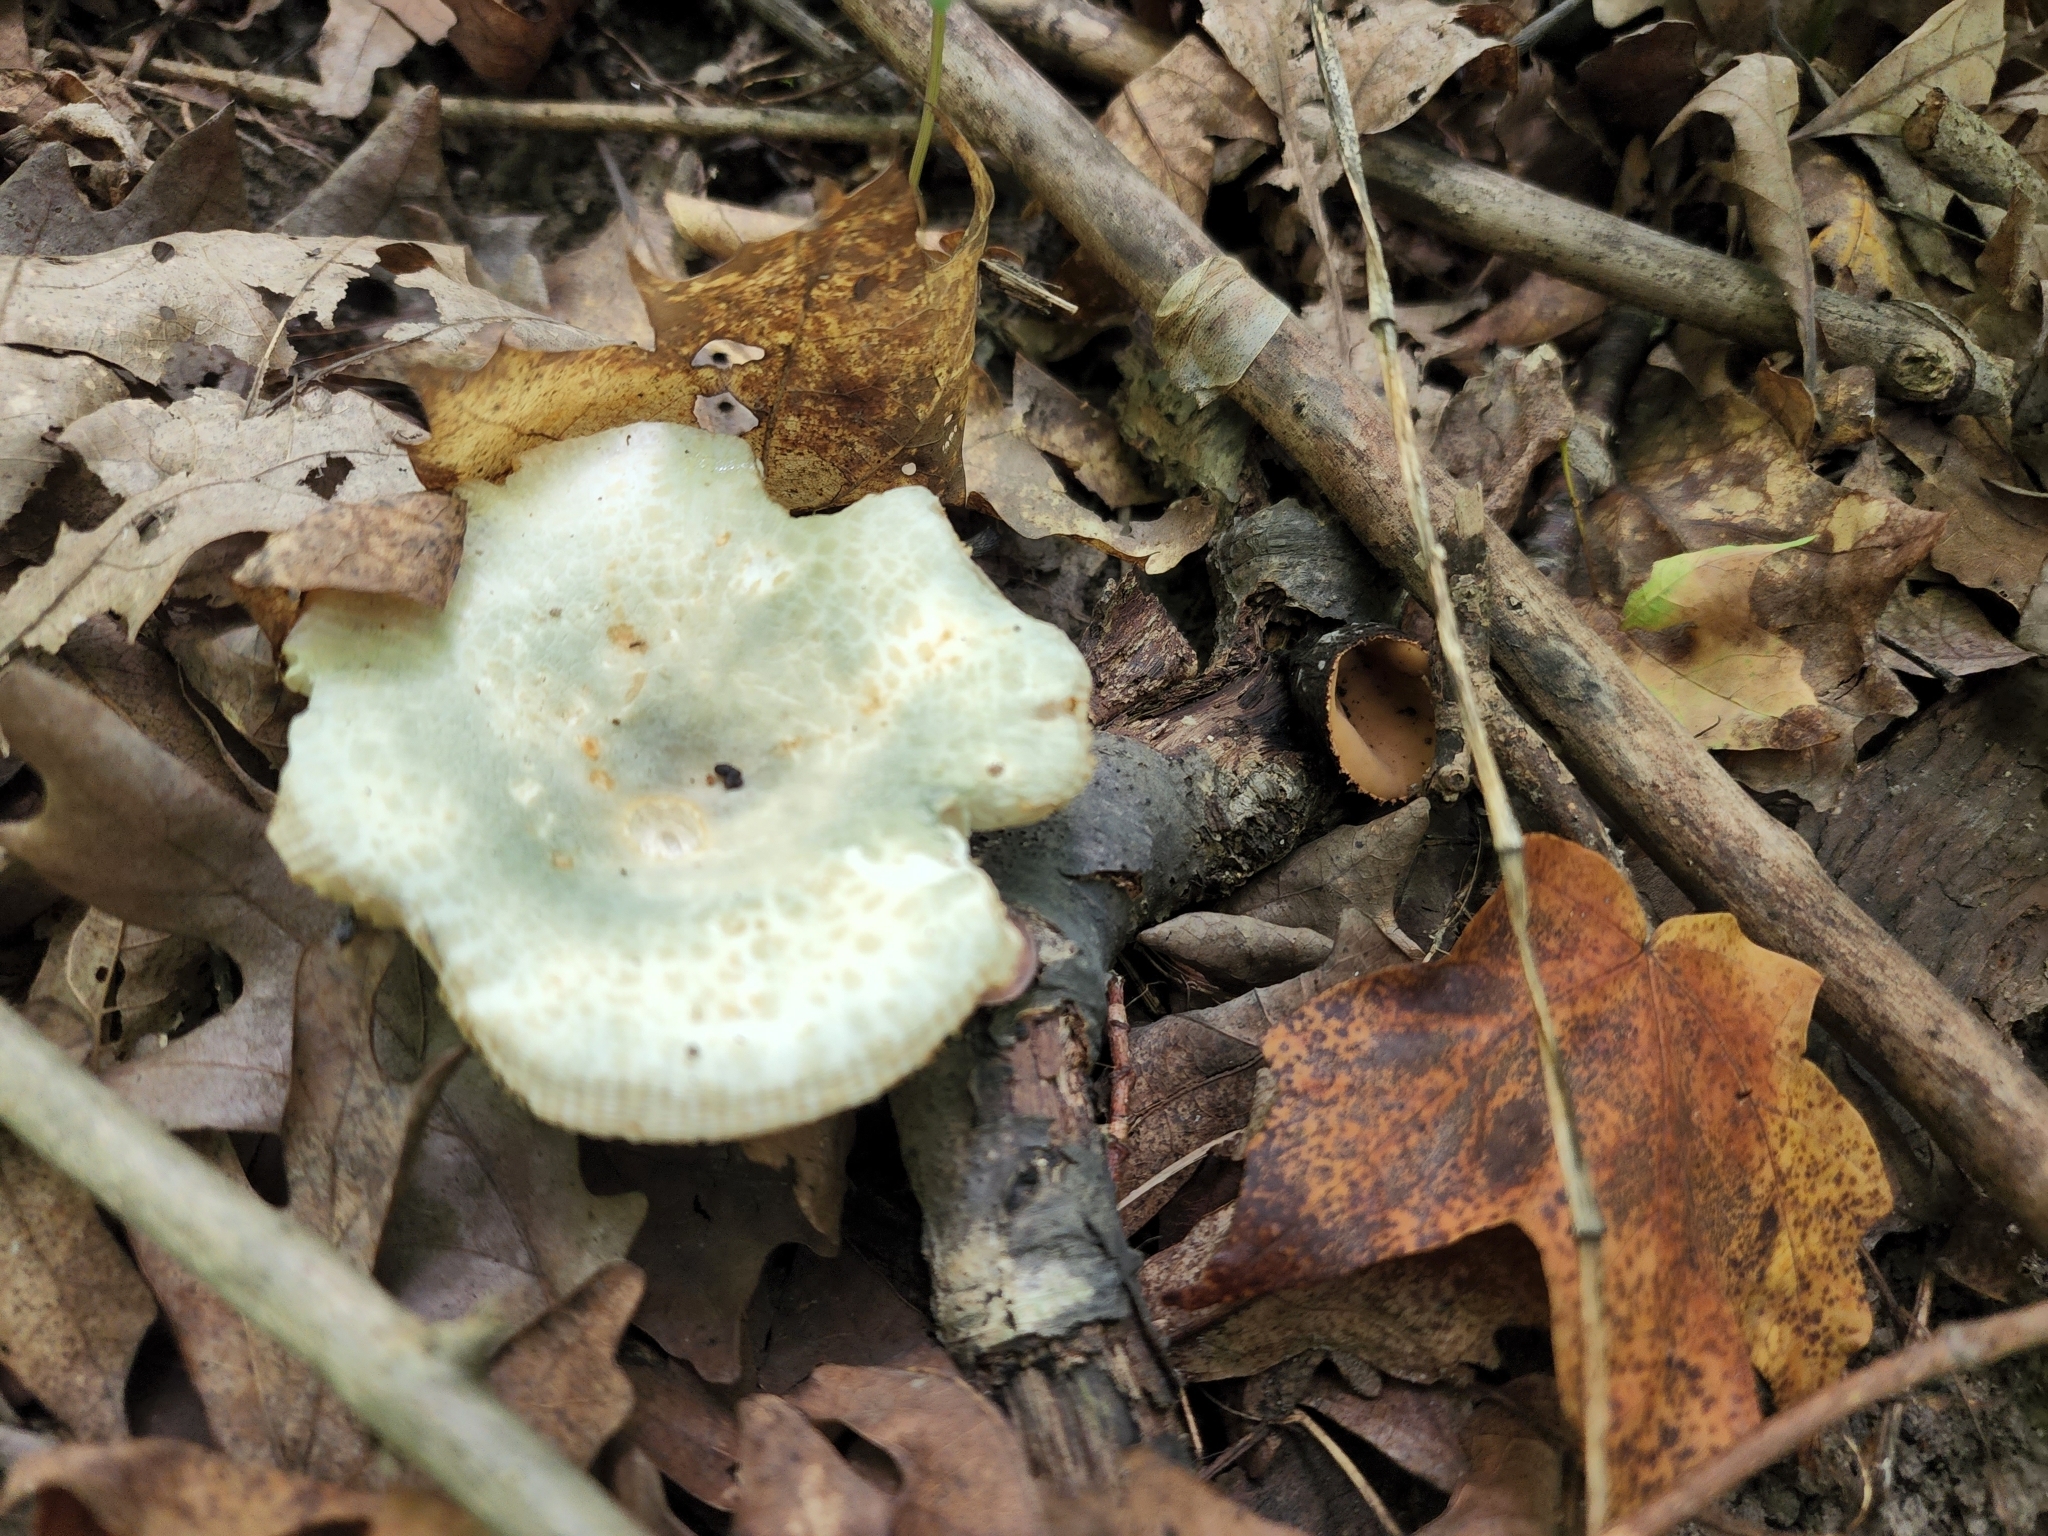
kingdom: Fungi
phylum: Basidiomycota
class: Agaricomycetes
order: Russulales
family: Russulaceae
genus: Russula
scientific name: Russula parvovirescens
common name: Blue-green cracking russula
